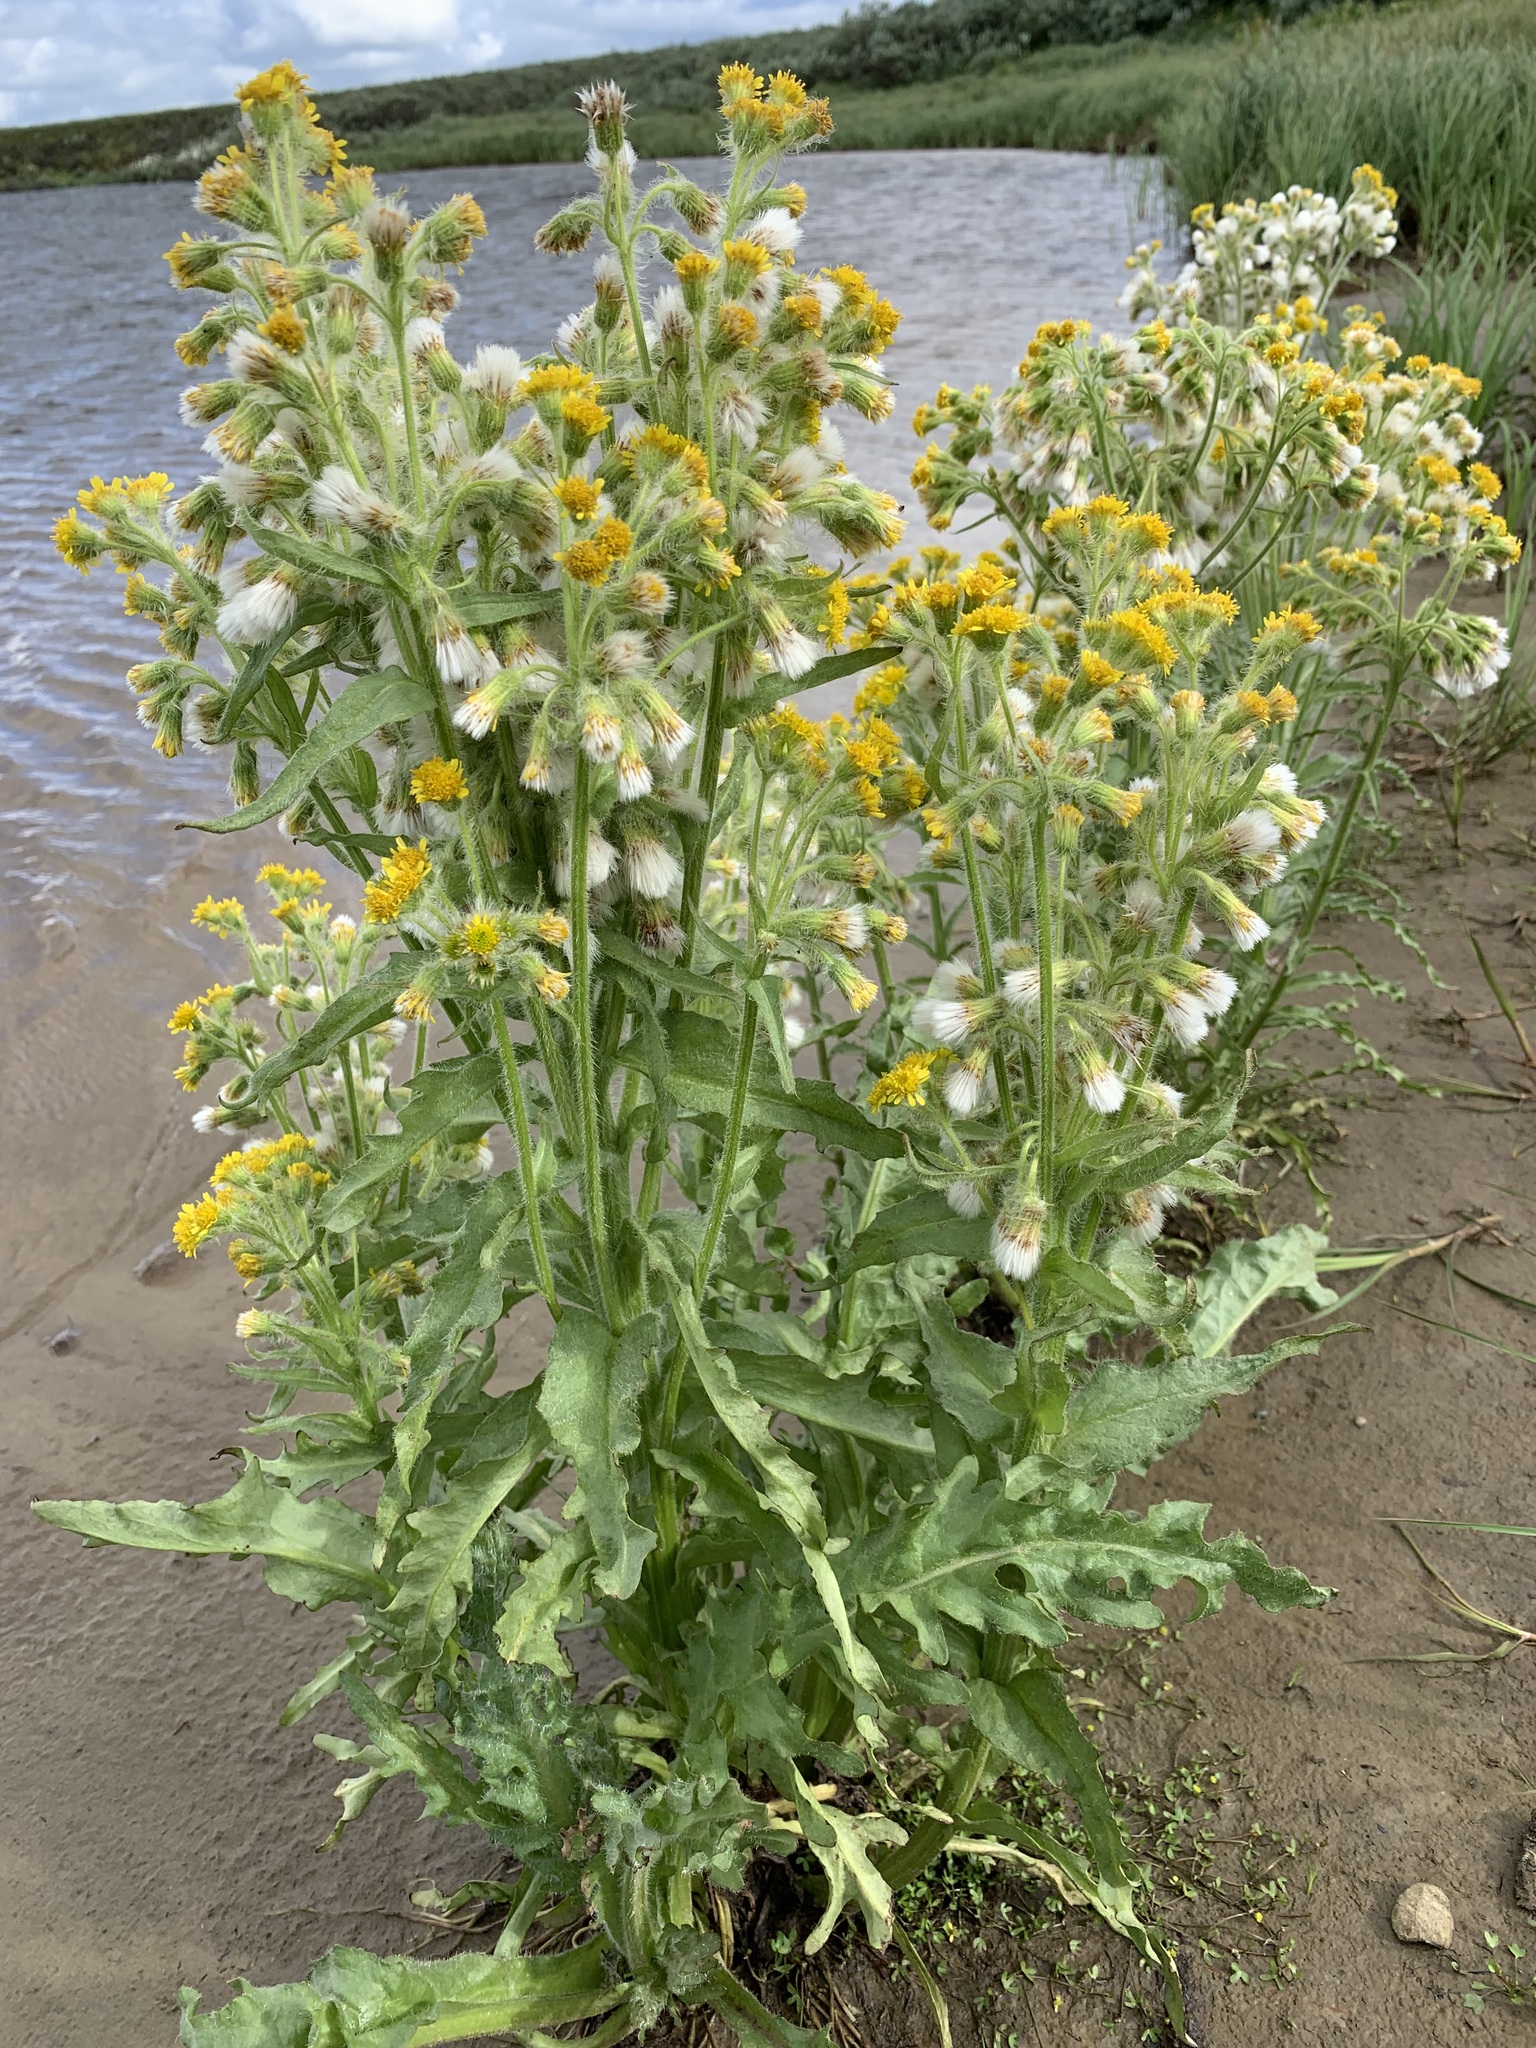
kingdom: Plantae
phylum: Tracheophyta
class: Magnoliopsida
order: Asterales
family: Asteraceae
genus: Tephroseris
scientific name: Tephroseris palustris
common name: Marsh fleawort
